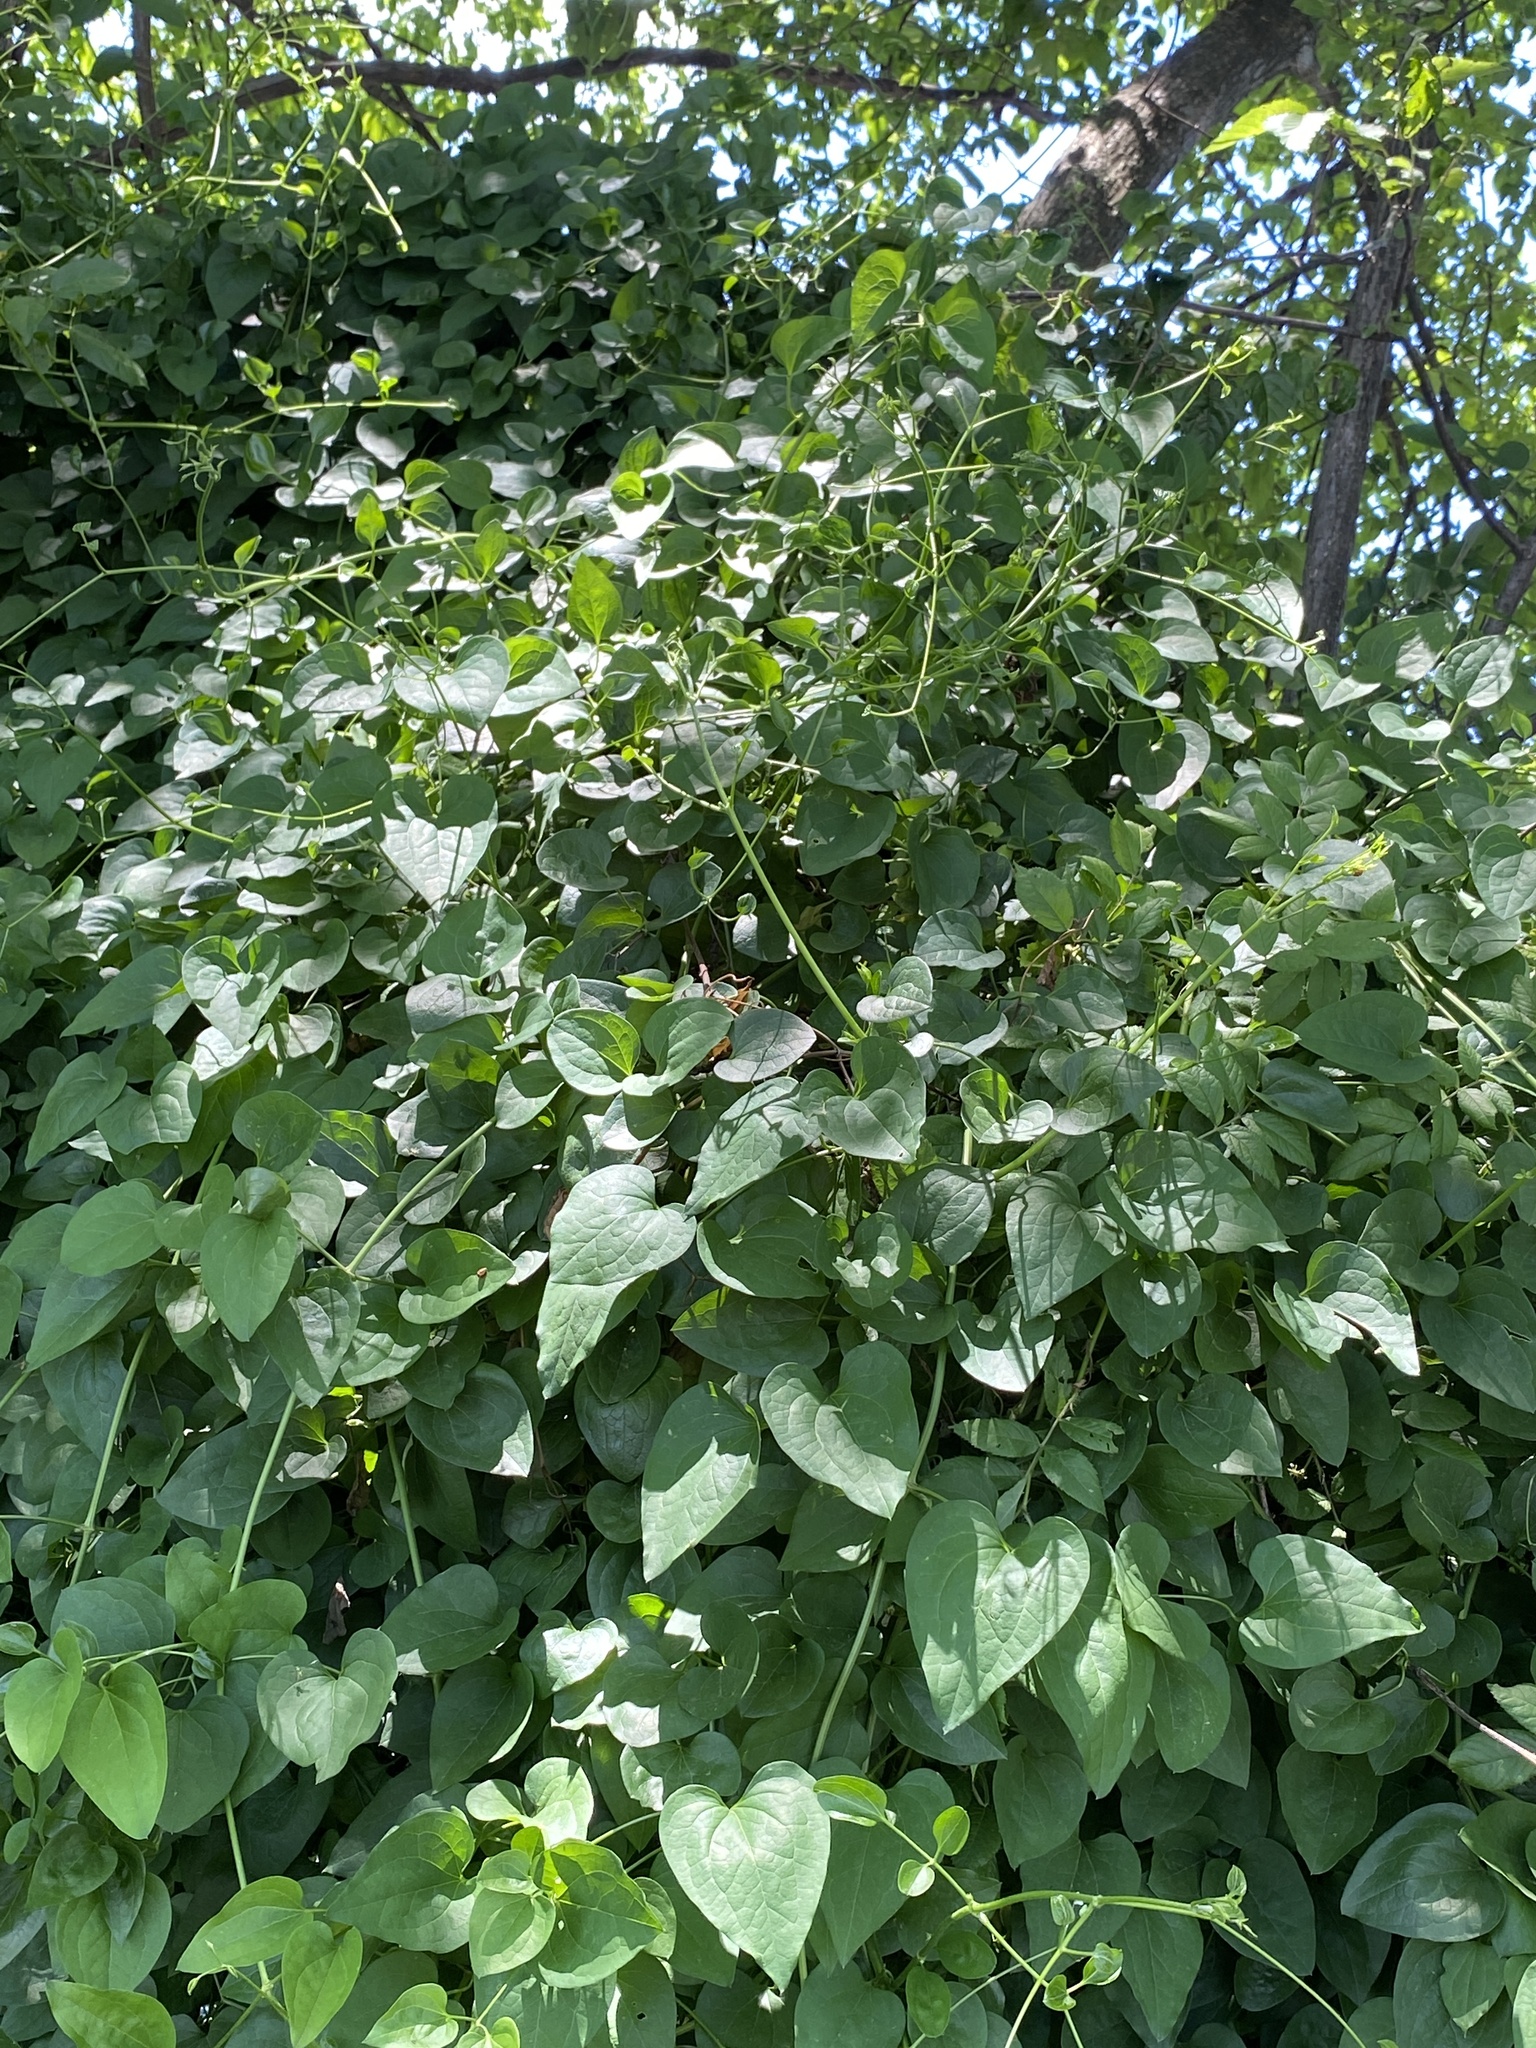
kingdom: Plantae
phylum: Tracheophyta
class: Magnoliopsida
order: Ranunculales
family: Ranunculaceae
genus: Clematis
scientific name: Clematis terniflora
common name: Sweet autumn clematis
